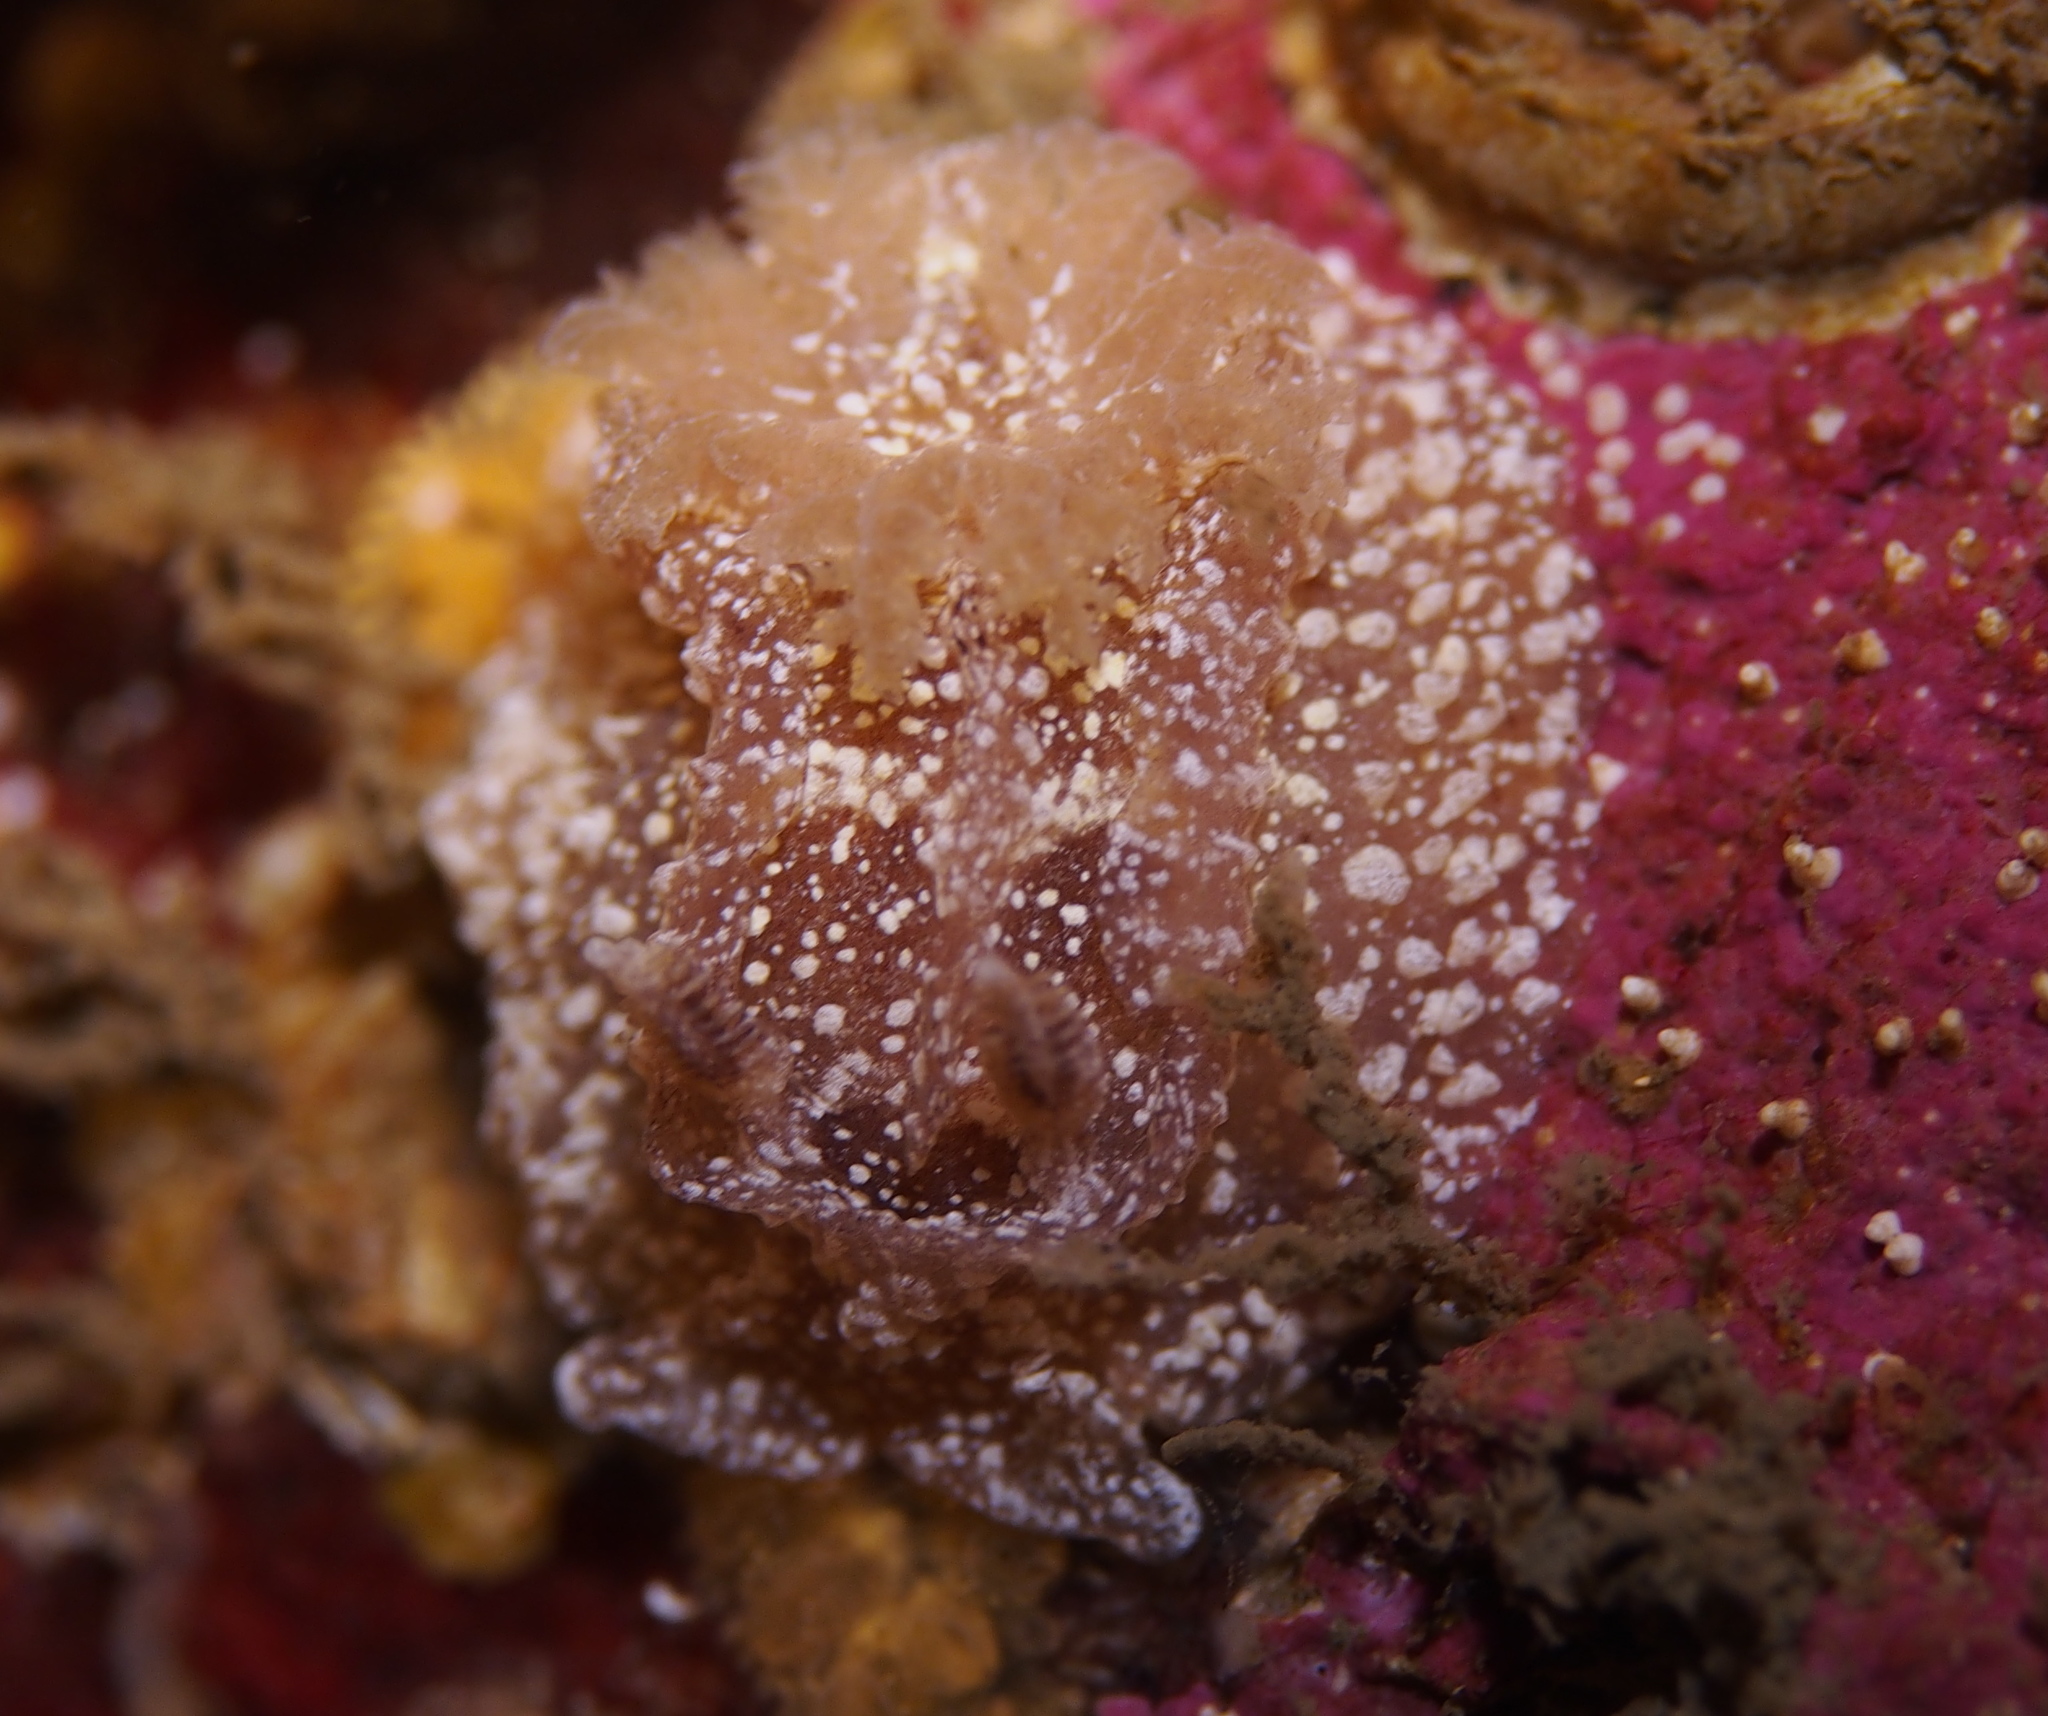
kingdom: Animalia
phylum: Mollusca
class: Gastropoda
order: Nudibranchia
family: Goniodorididae
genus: Pelagella
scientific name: Pelagella castanea
